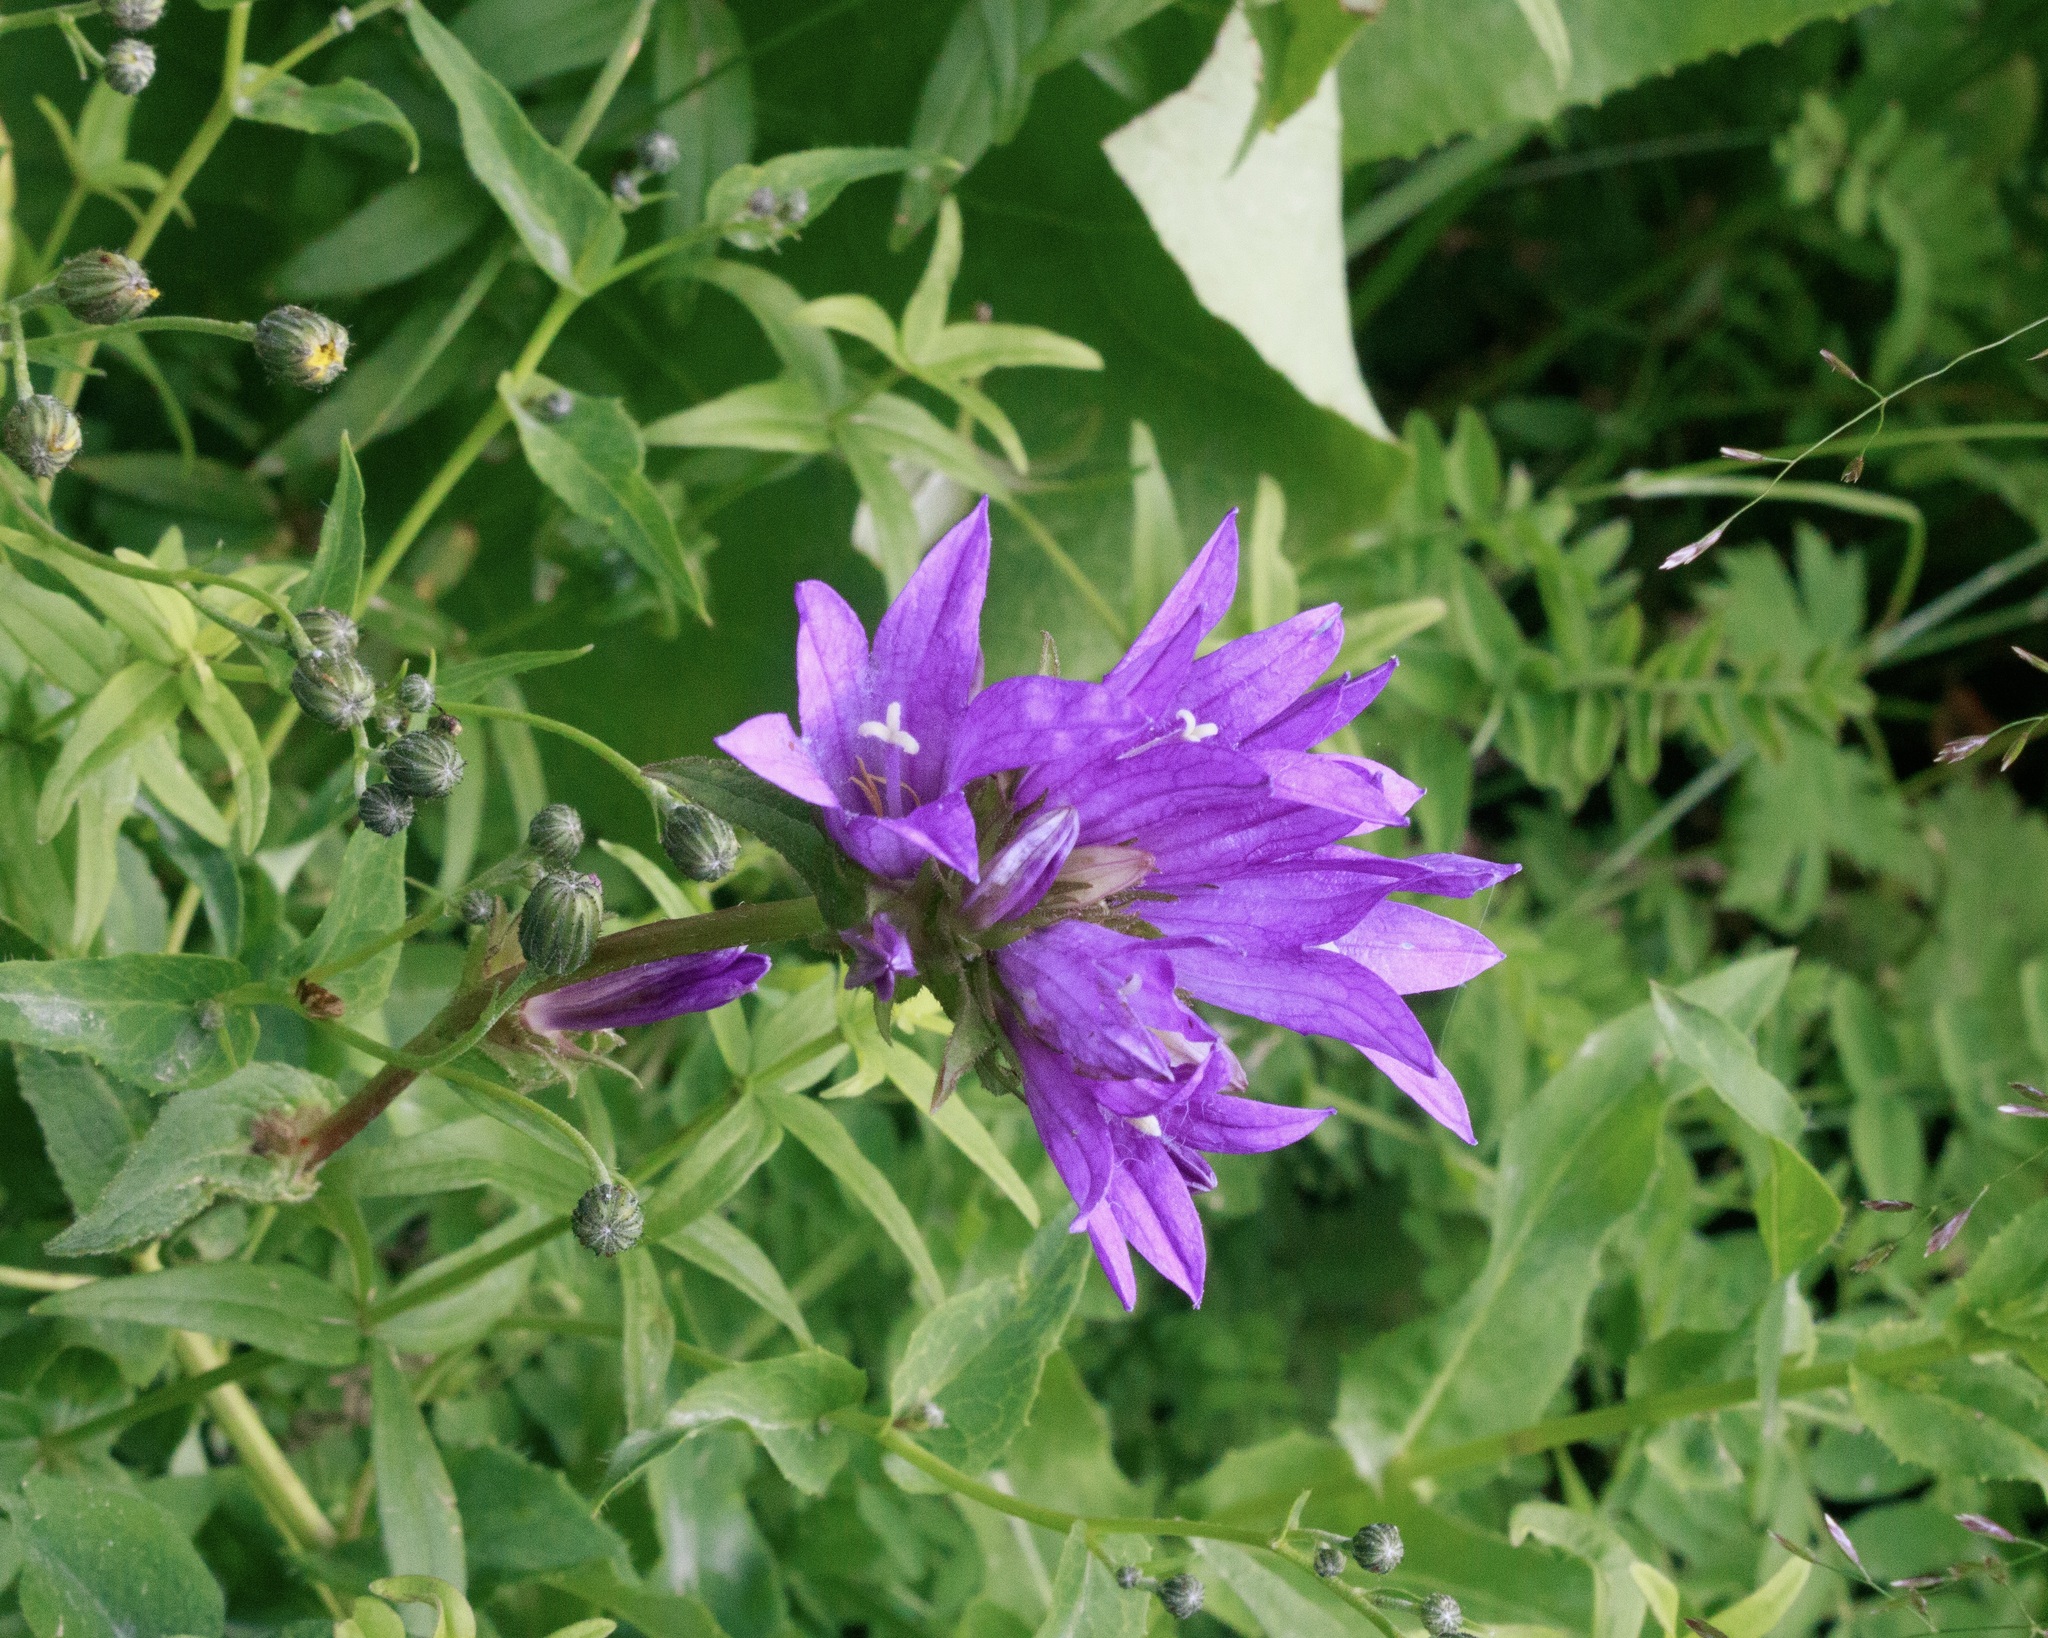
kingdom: Plantae
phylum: Tracheophyta
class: Magnoliopsida
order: Asterales
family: Campanulaceae
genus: Campanula
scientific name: Campanula glomerata
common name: Clustered bellflower
